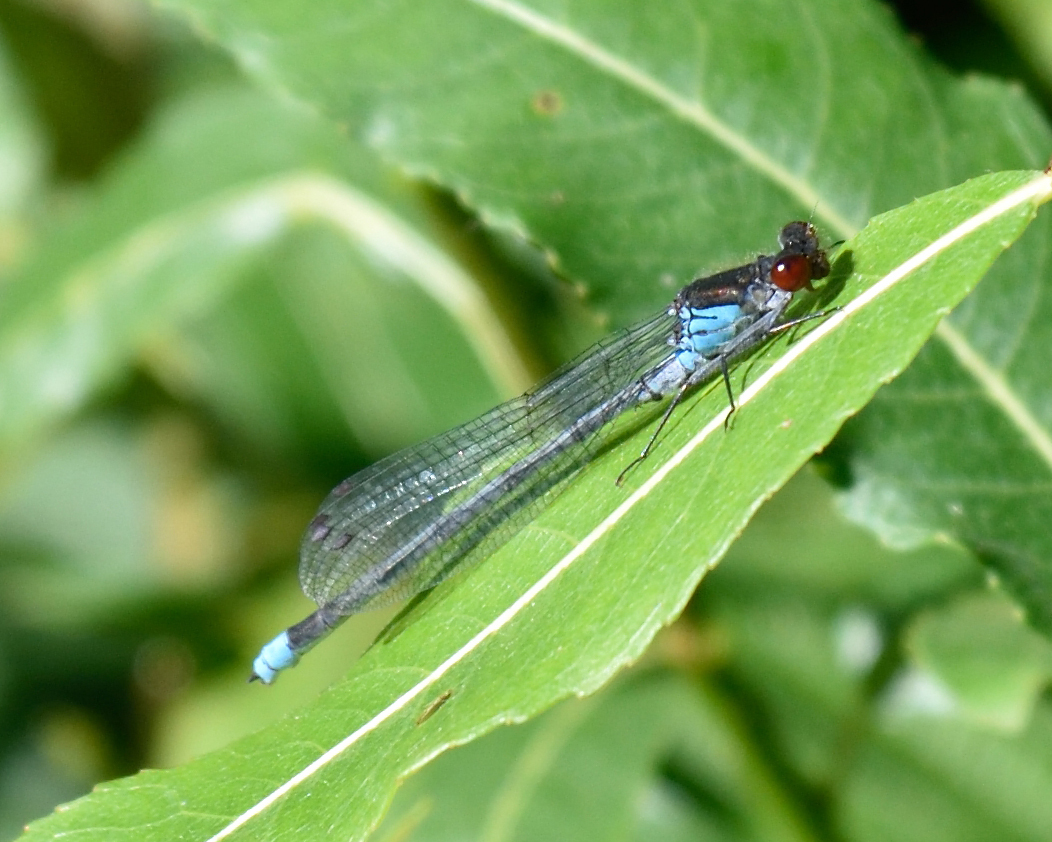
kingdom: Animalia
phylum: Arthropoda
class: Insecta
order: Odonata
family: Coenagrionidae
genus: Erythromma
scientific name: Erythromma najas
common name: Red-eyed damselfly
